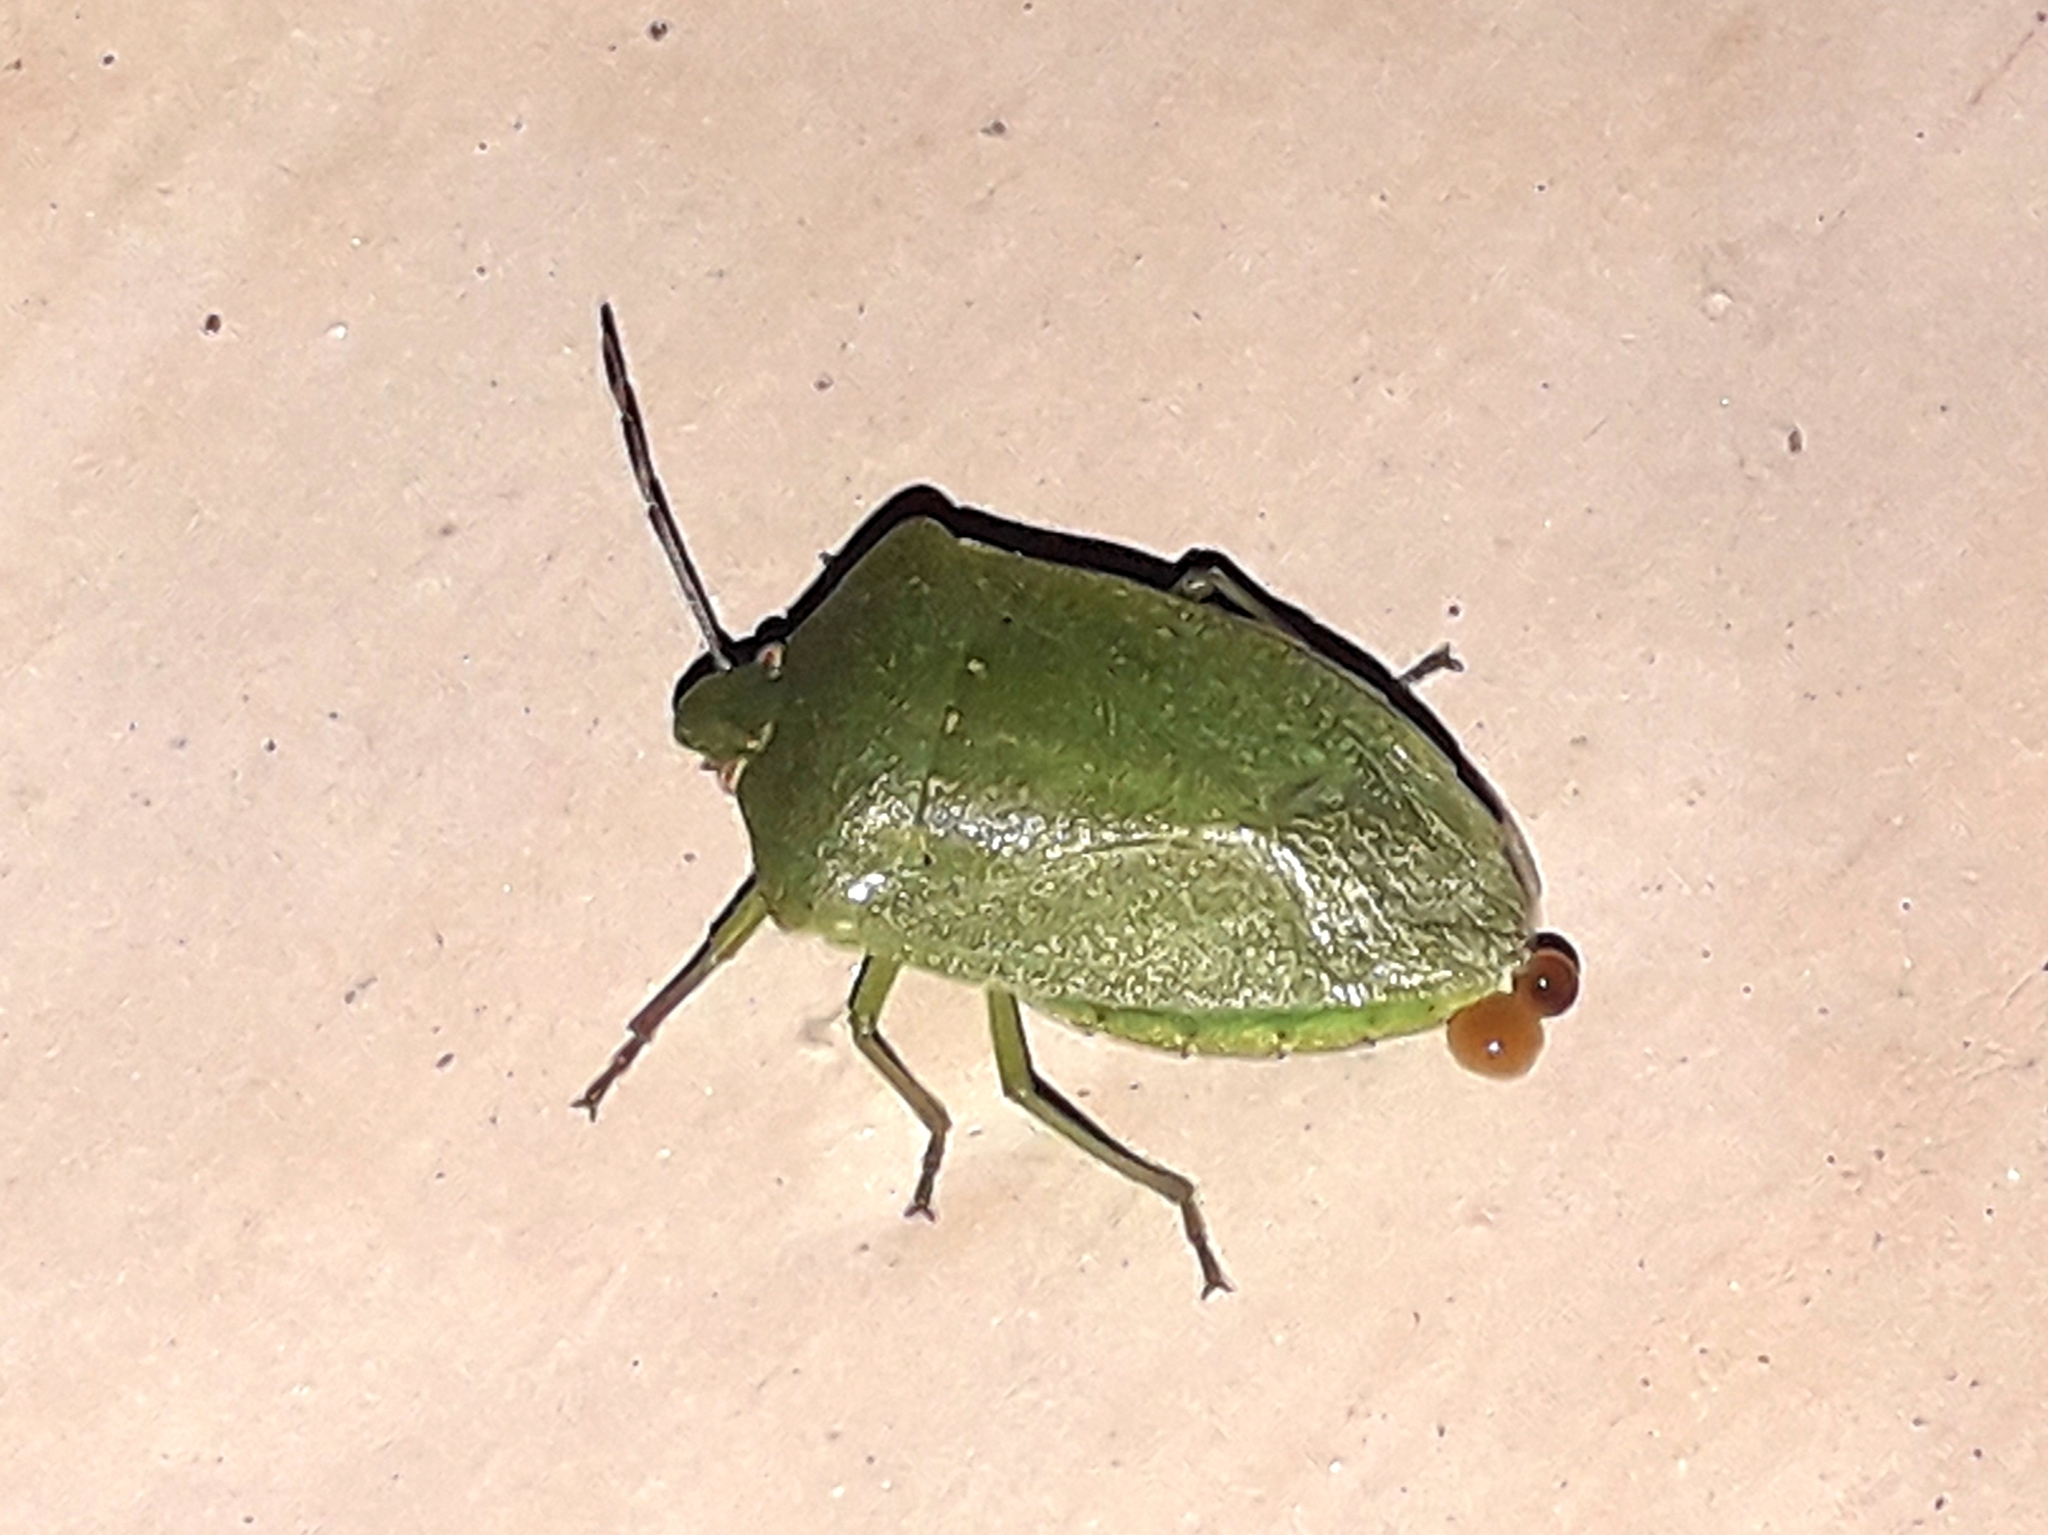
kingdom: Animalia
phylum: Arthropoda
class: Insecta
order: Hemiptera
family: Pentatomidae
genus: Nezara
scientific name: Nezara viridula
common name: Southern green stink bug
